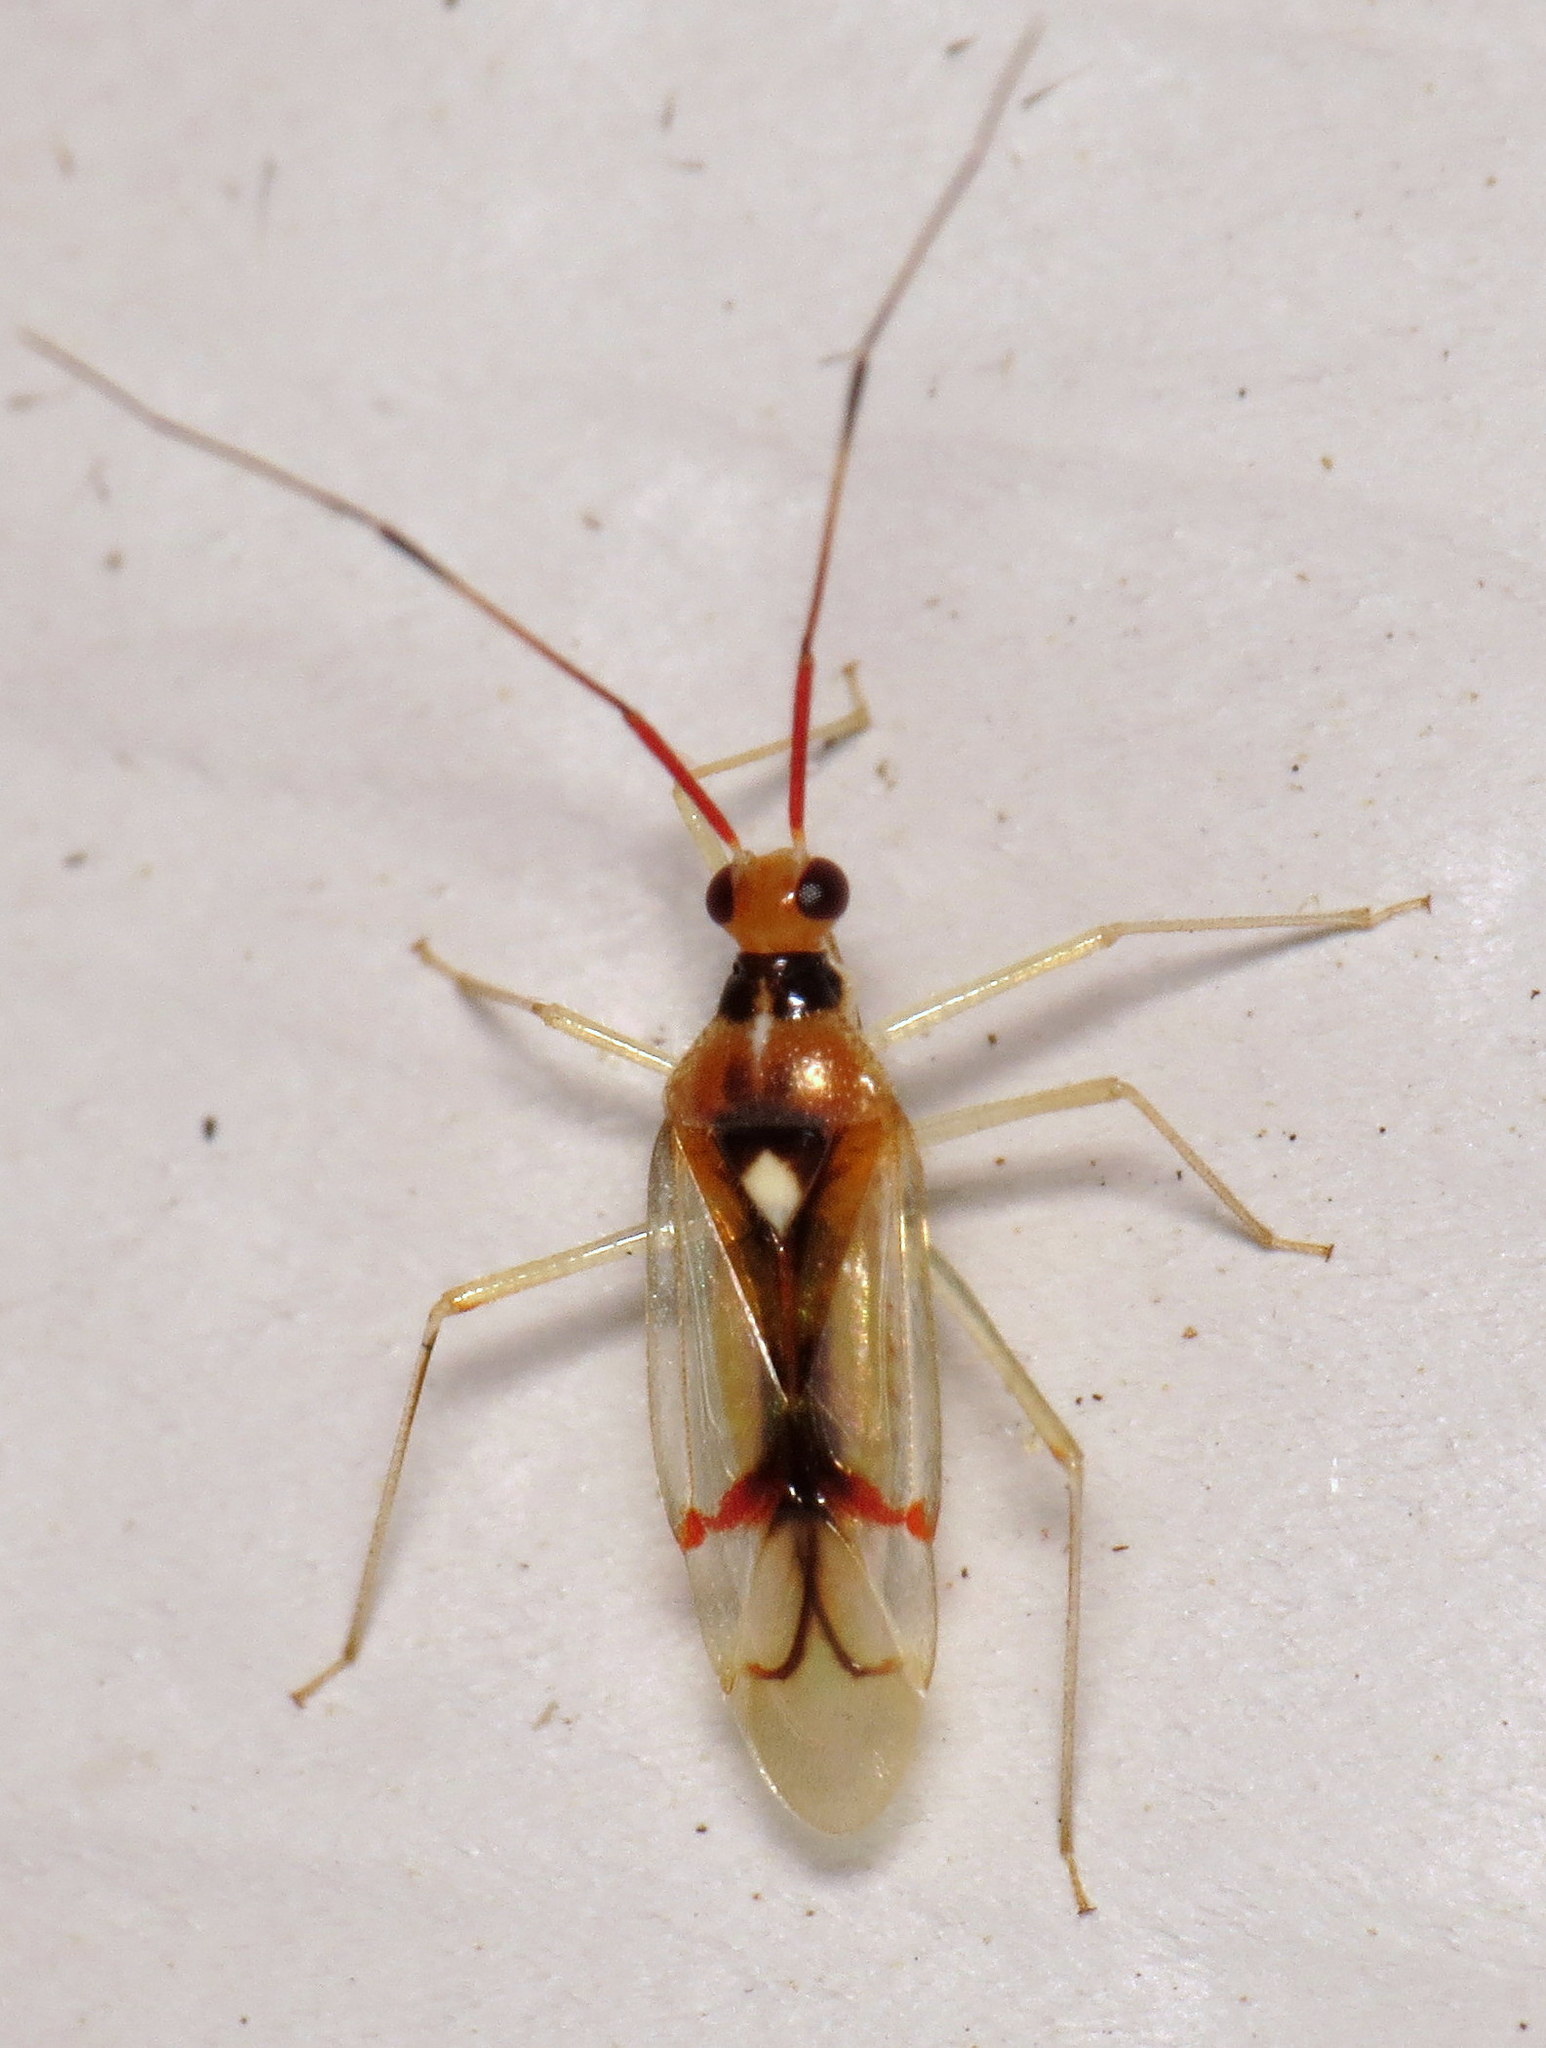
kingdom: Animalia
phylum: Arthropoda
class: Insecta
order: Hemiptera
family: Miridae
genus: Hyaliodes
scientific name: Hyaliodes harti
